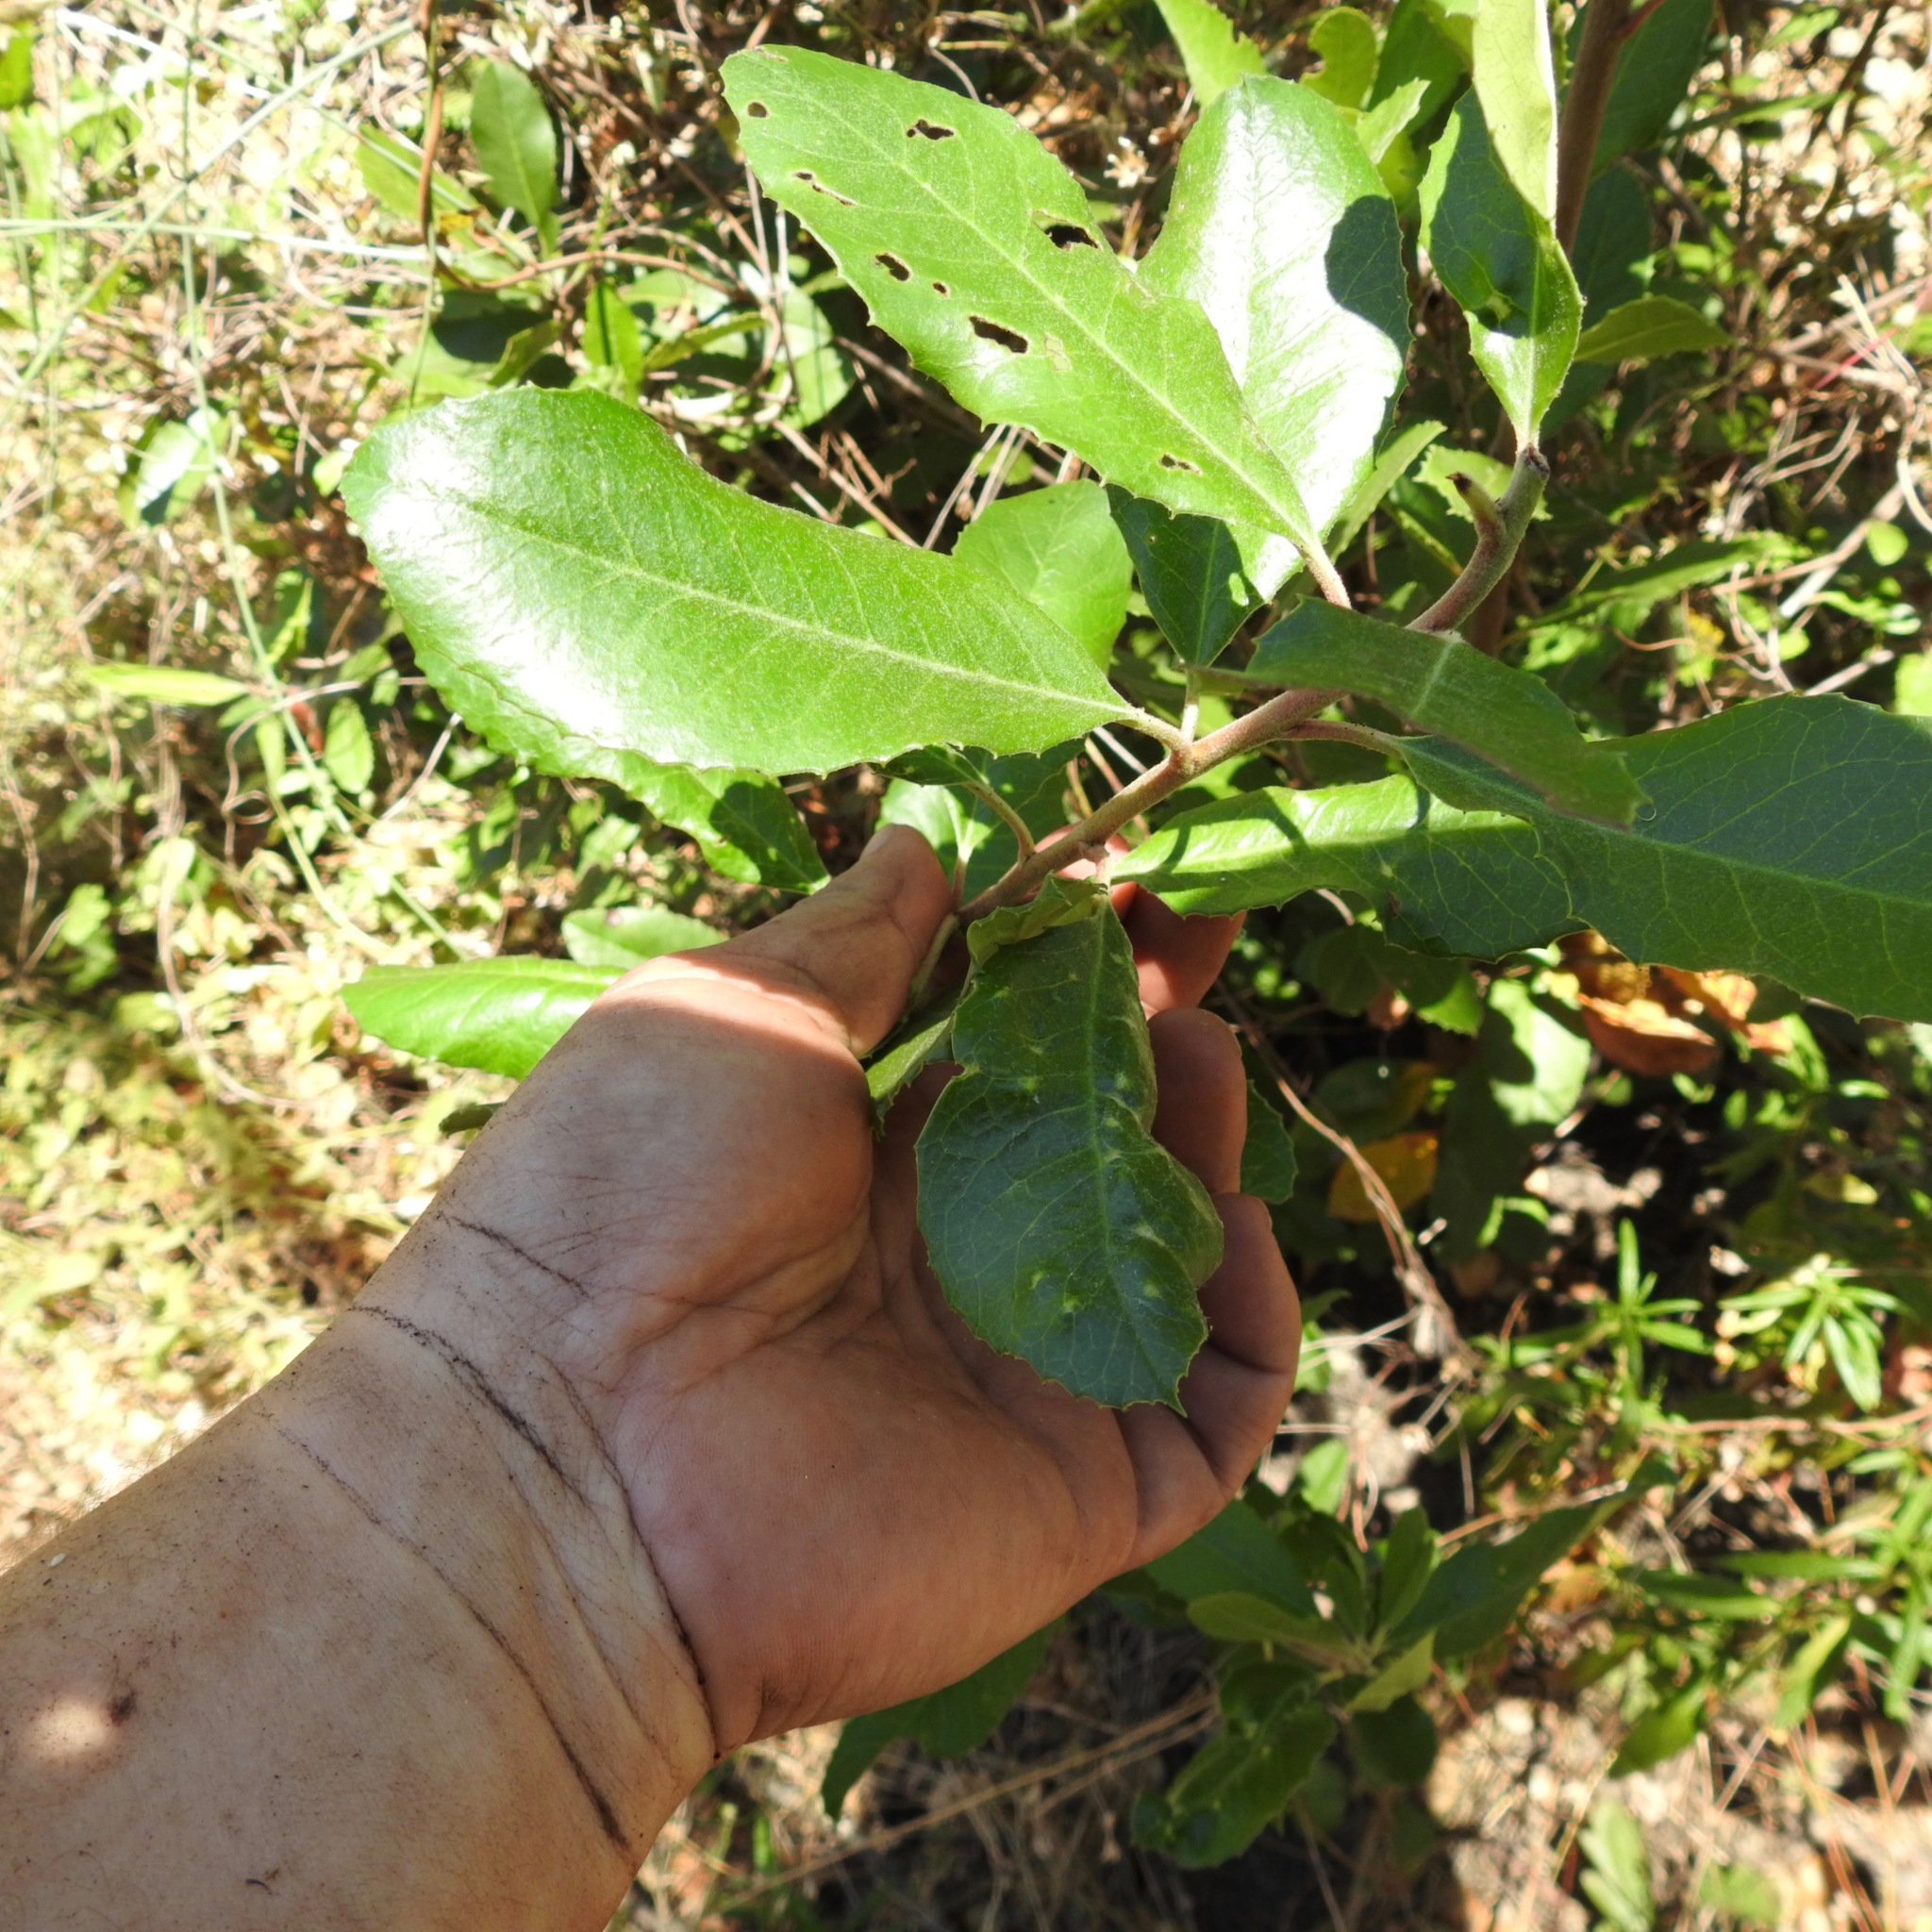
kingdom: Plantae
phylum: Tracheophyta
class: Magnoliopsida
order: Rosales
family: Rosaceae
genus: Heteromeles
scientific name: Heteromeles arbutifolia
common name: California-holly
